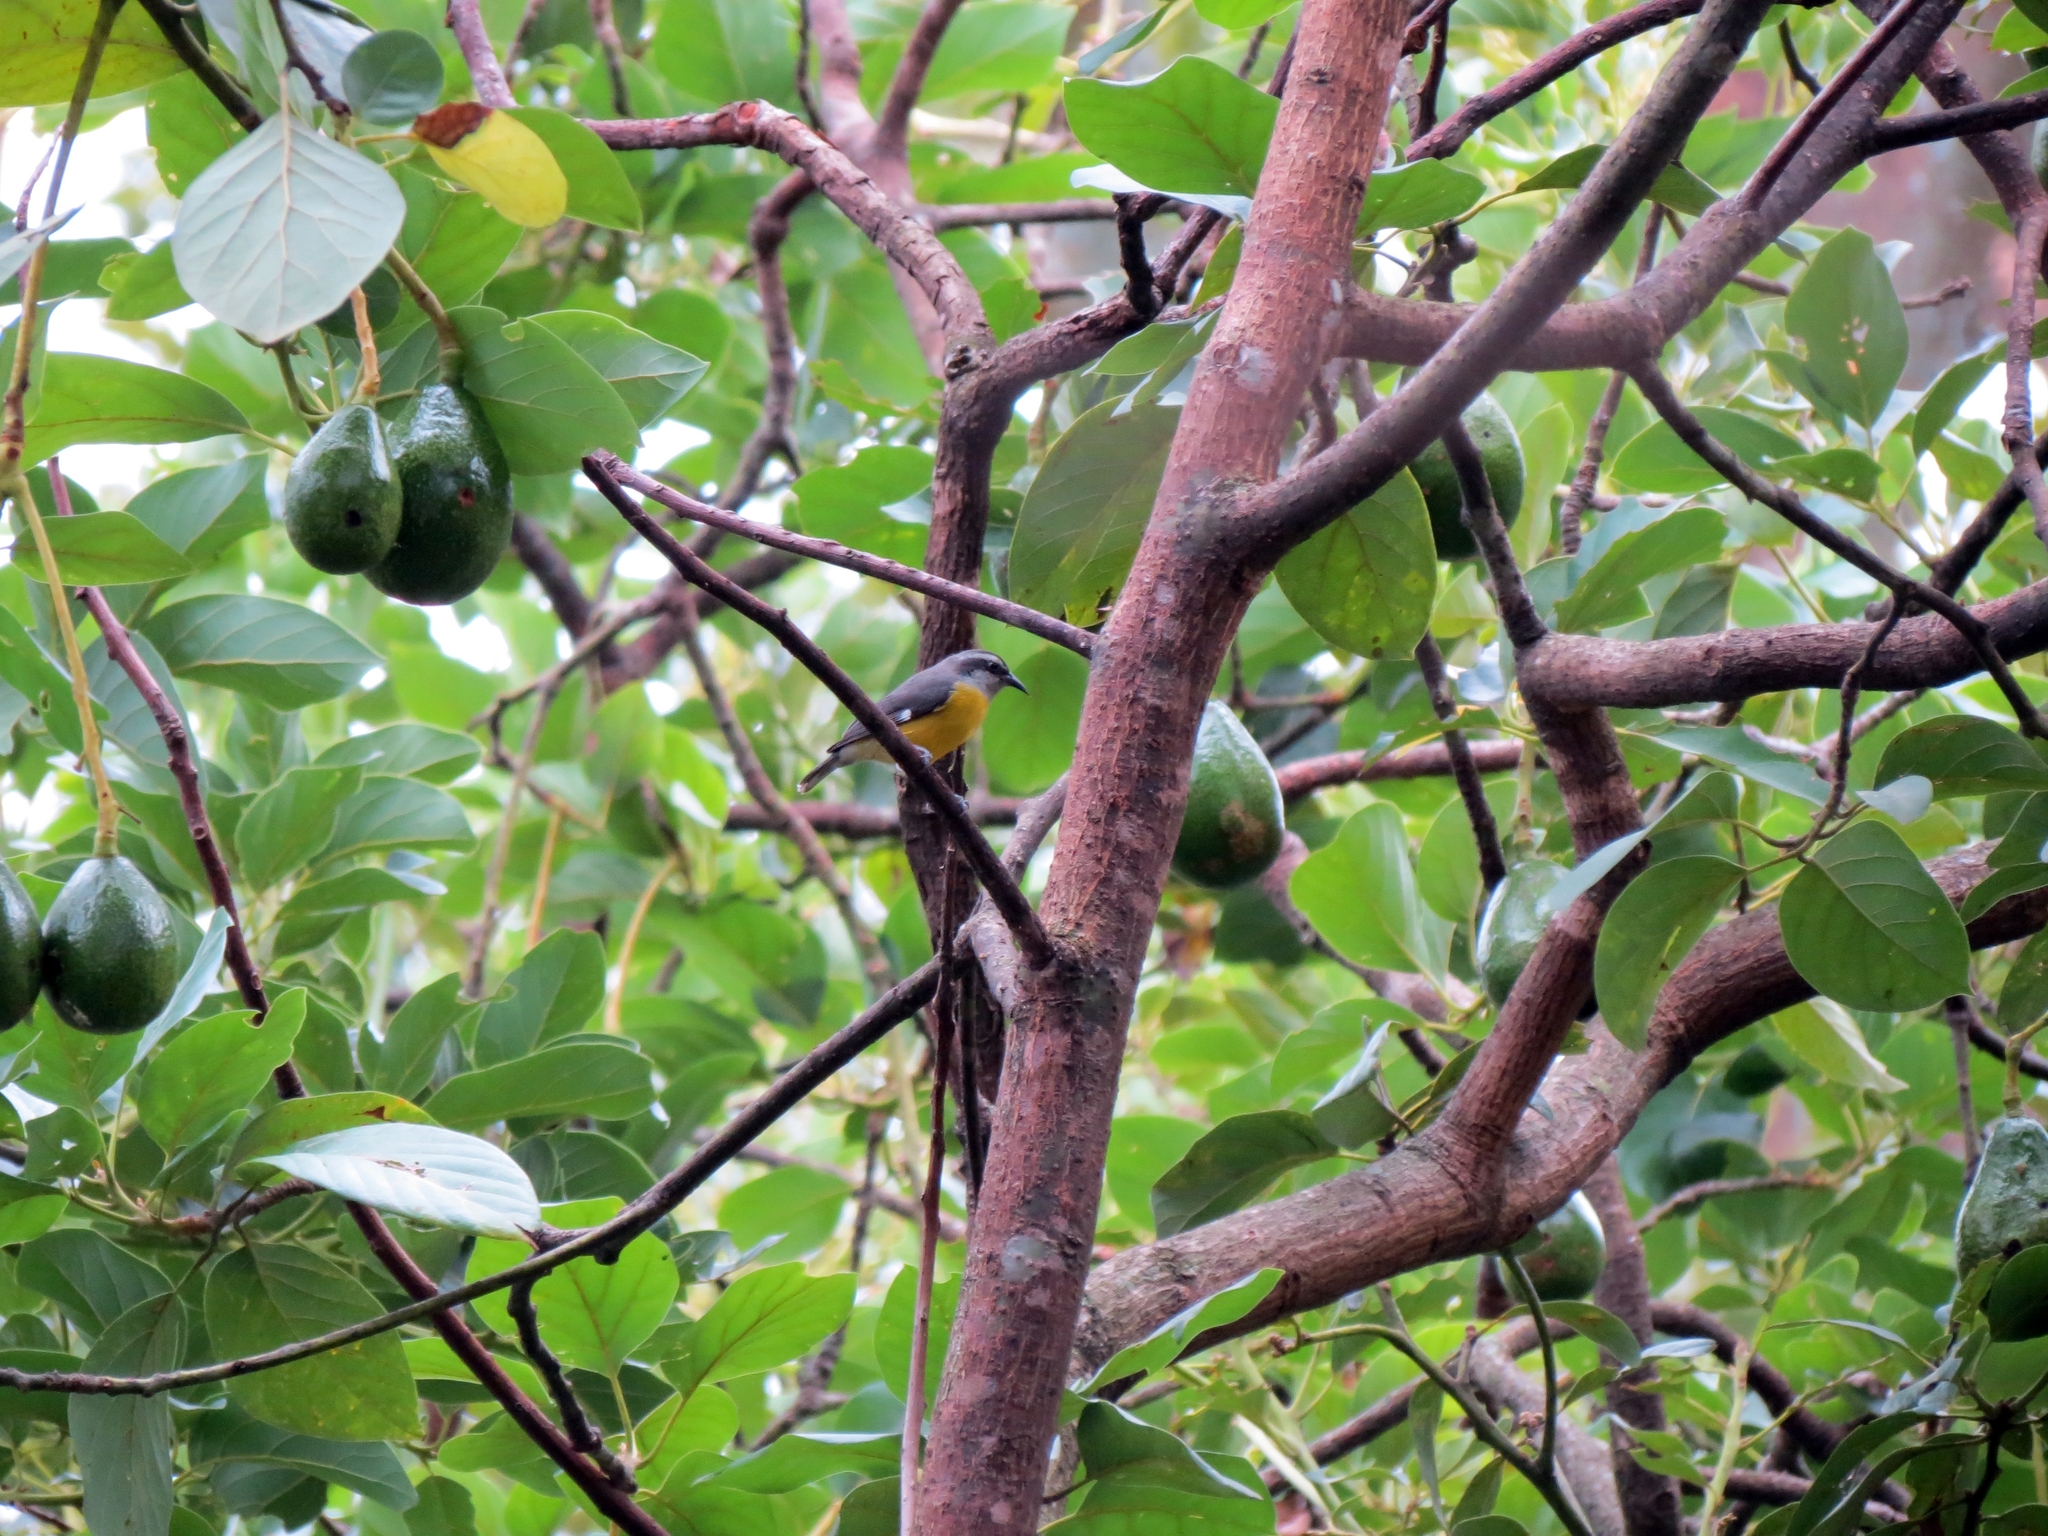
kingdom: Animalia
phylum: Chordata
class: Aves
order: Passeriformes
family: Thraupidae
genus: Coereba
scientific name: Coereba flaveola
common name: Bananaquit
